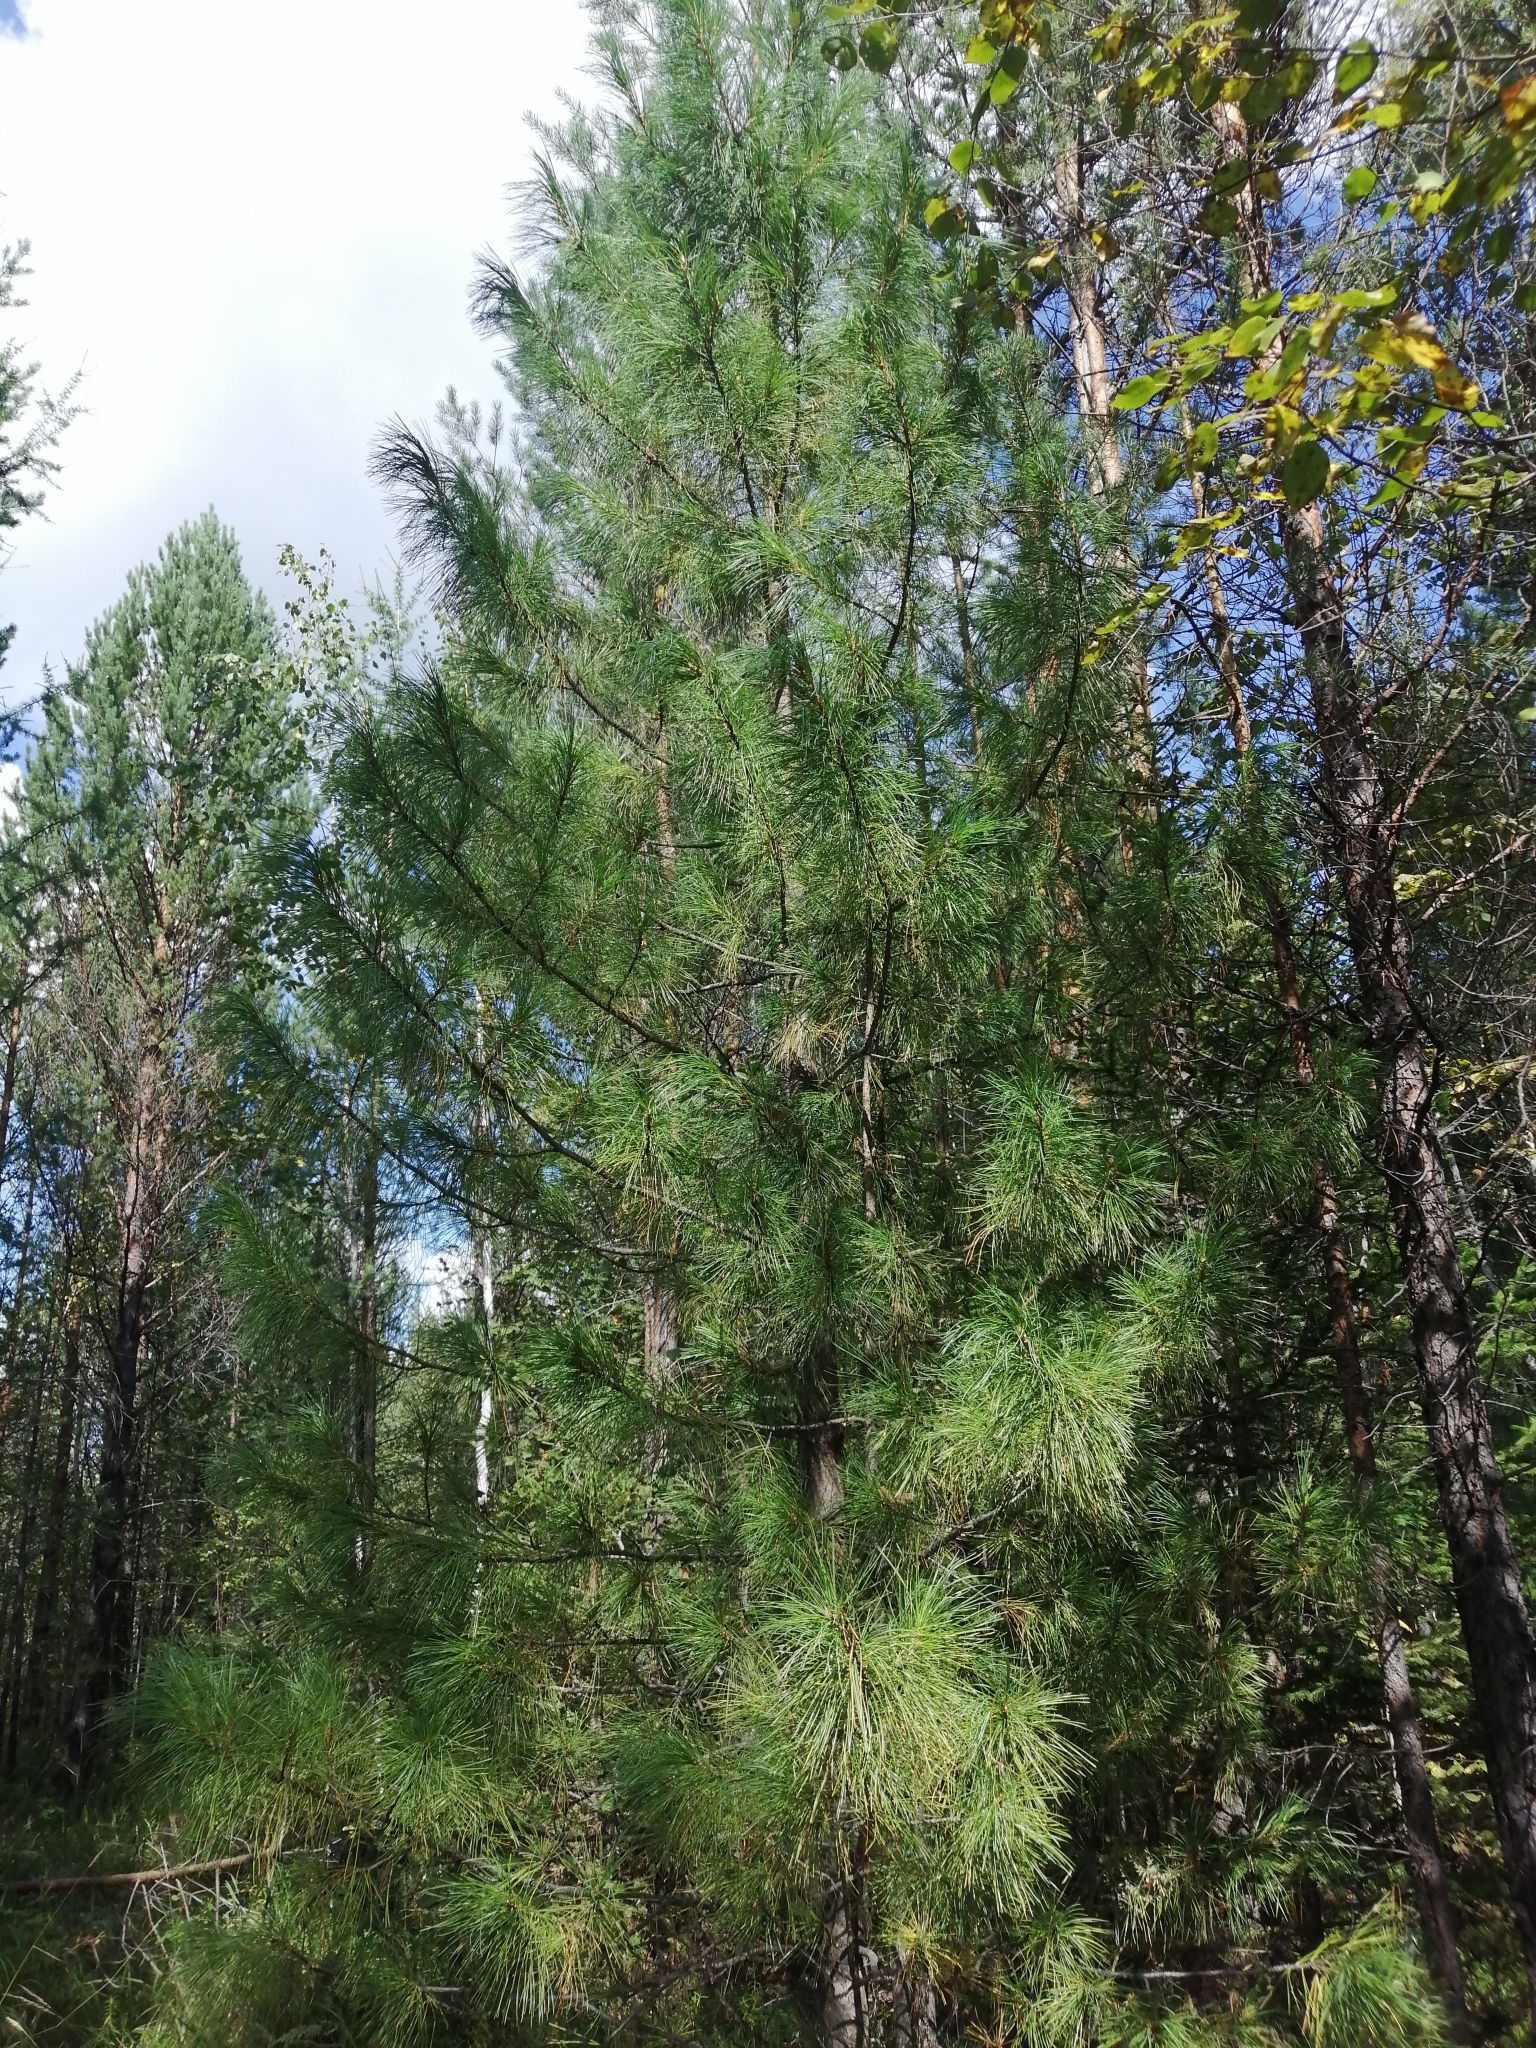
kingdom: Plantae
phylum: Tracheophyta
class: Pinopsida
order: Pinales
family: Pinaceae
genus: Pinus
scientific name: Pinus sibirica
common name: Siberian pine
